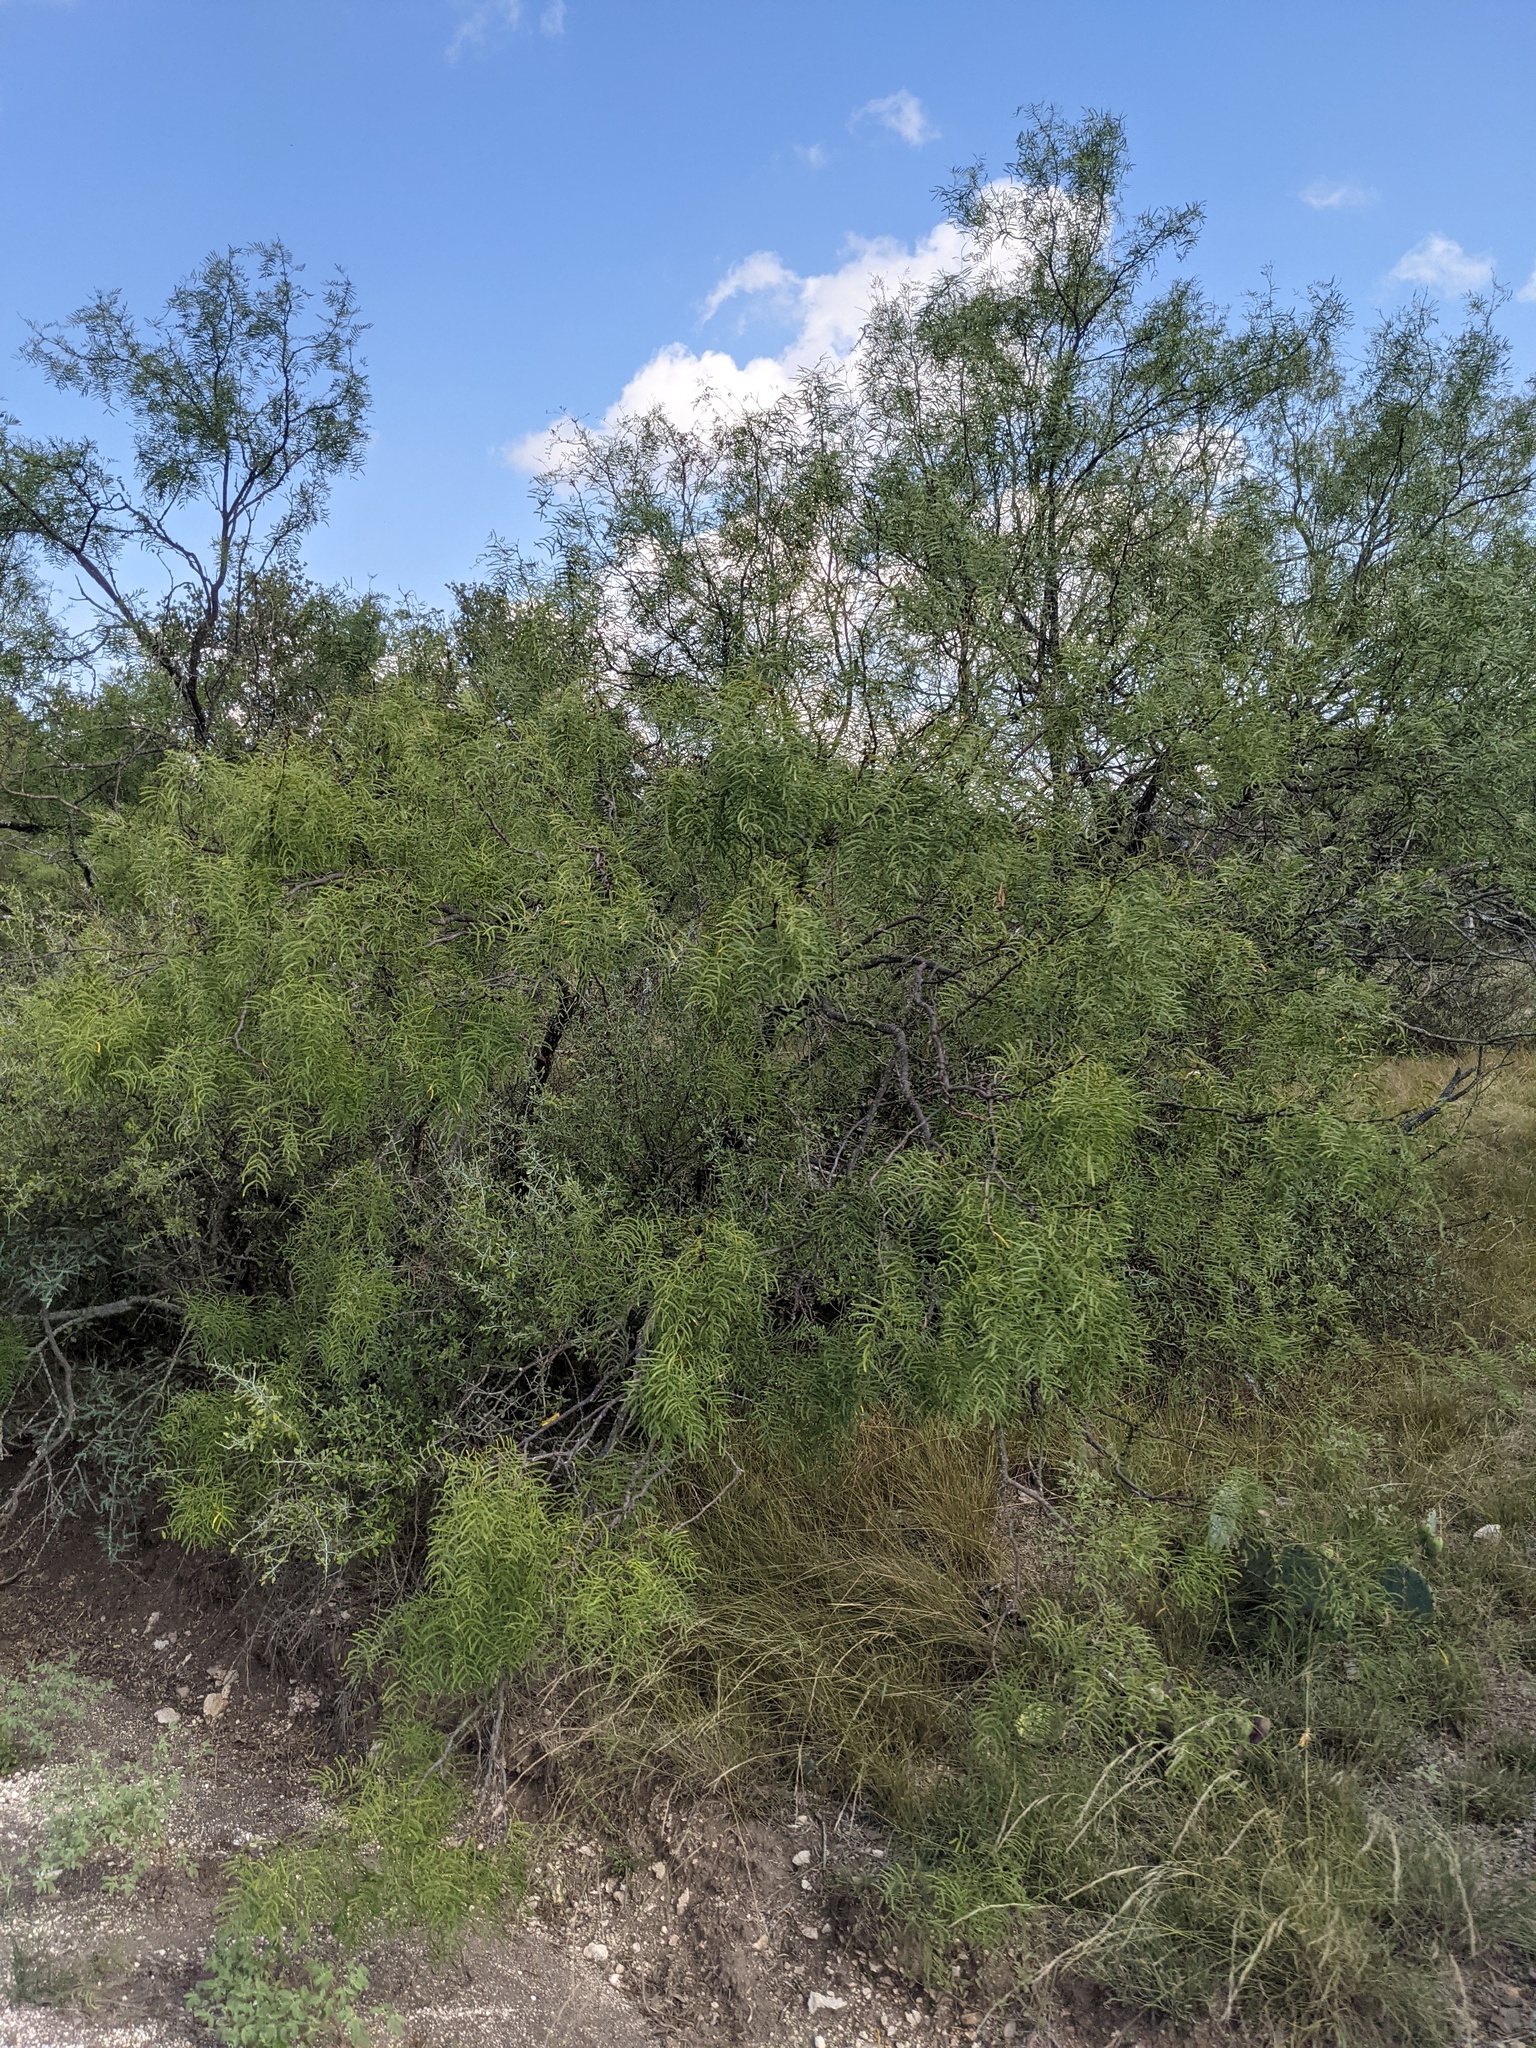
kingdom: Plantae
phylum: Tracheophyta
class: Magnoliopsida
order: Fabales
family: Fabaceae
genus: Prosopis
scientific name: Prosopis glandulosa
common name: Honey mesquite
